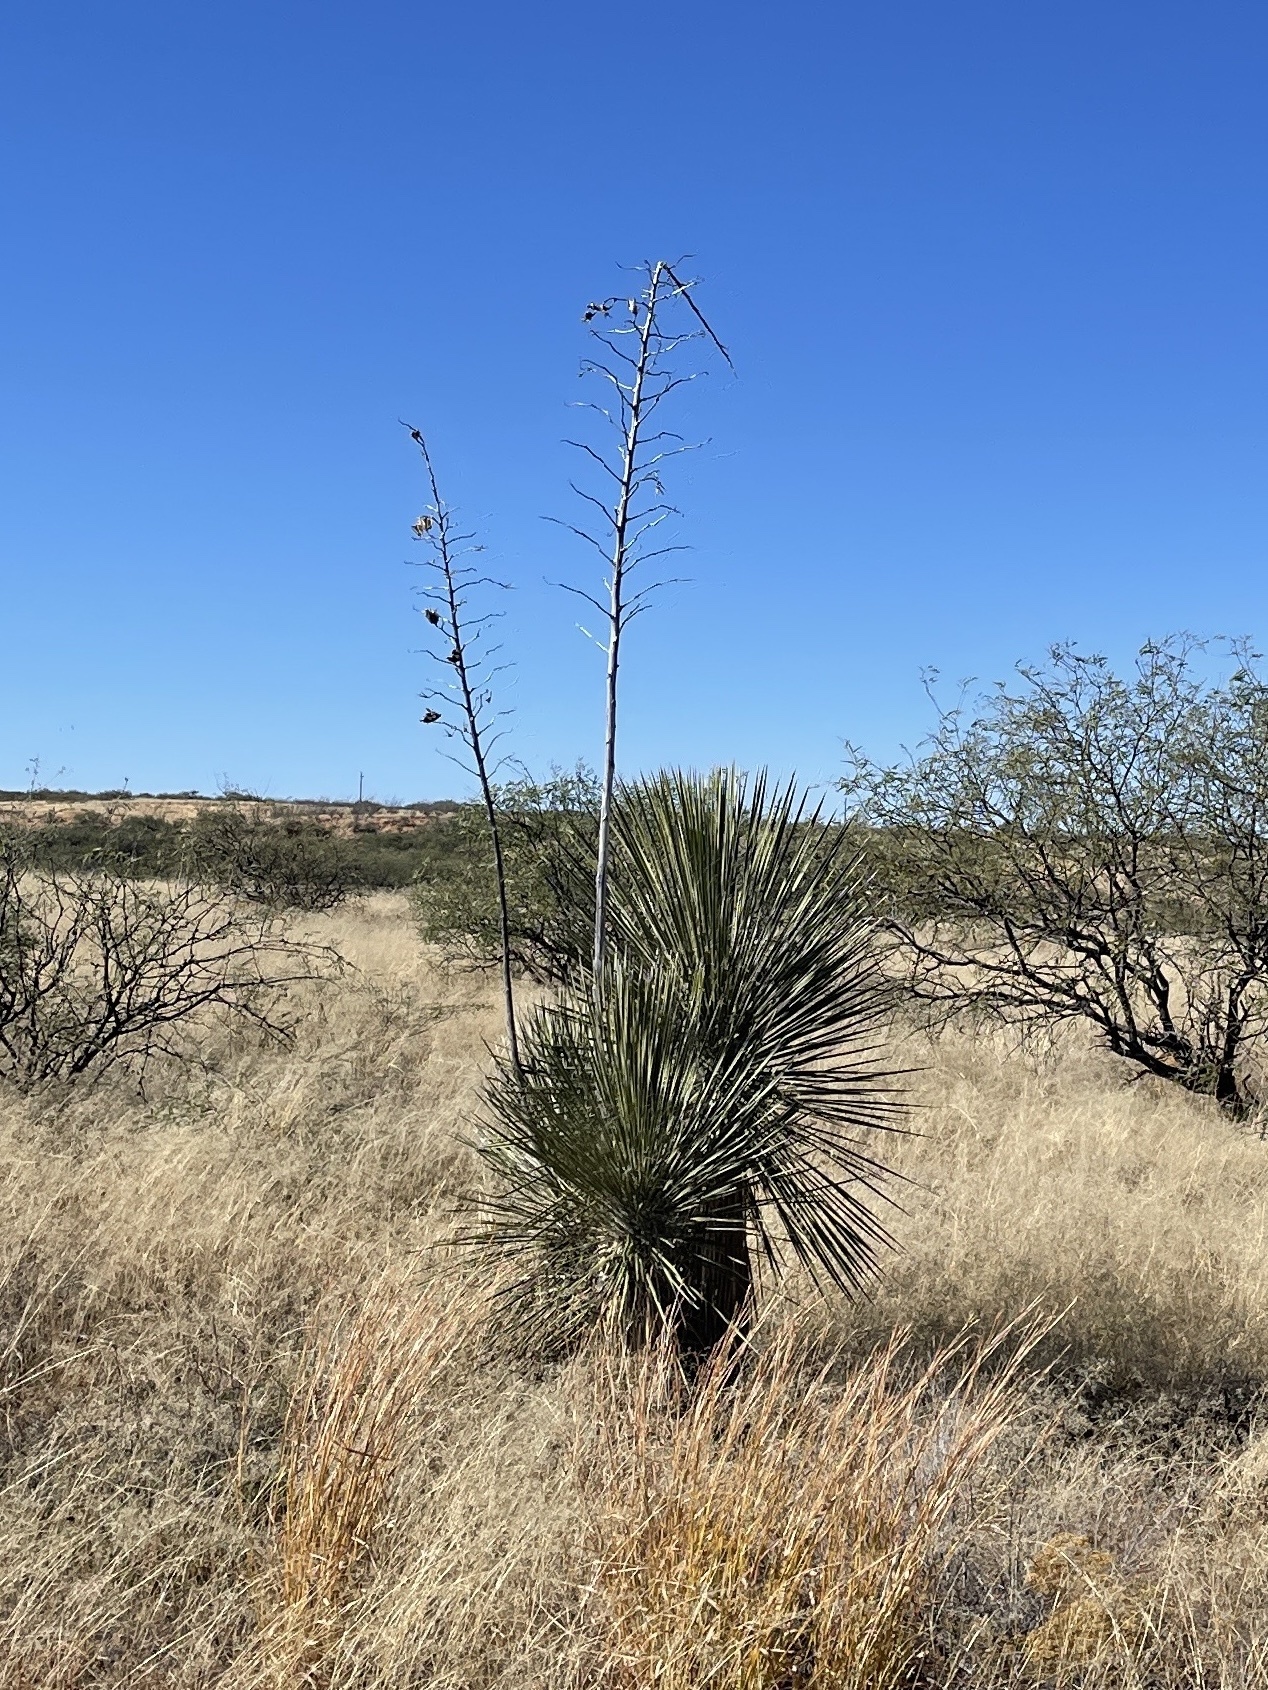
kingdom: Plantae
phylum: Tracheophyta
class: Liliopsida
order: Asparagales
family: Asparagaceae
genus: Yucca
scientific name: Yucca elata
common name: Palmella
